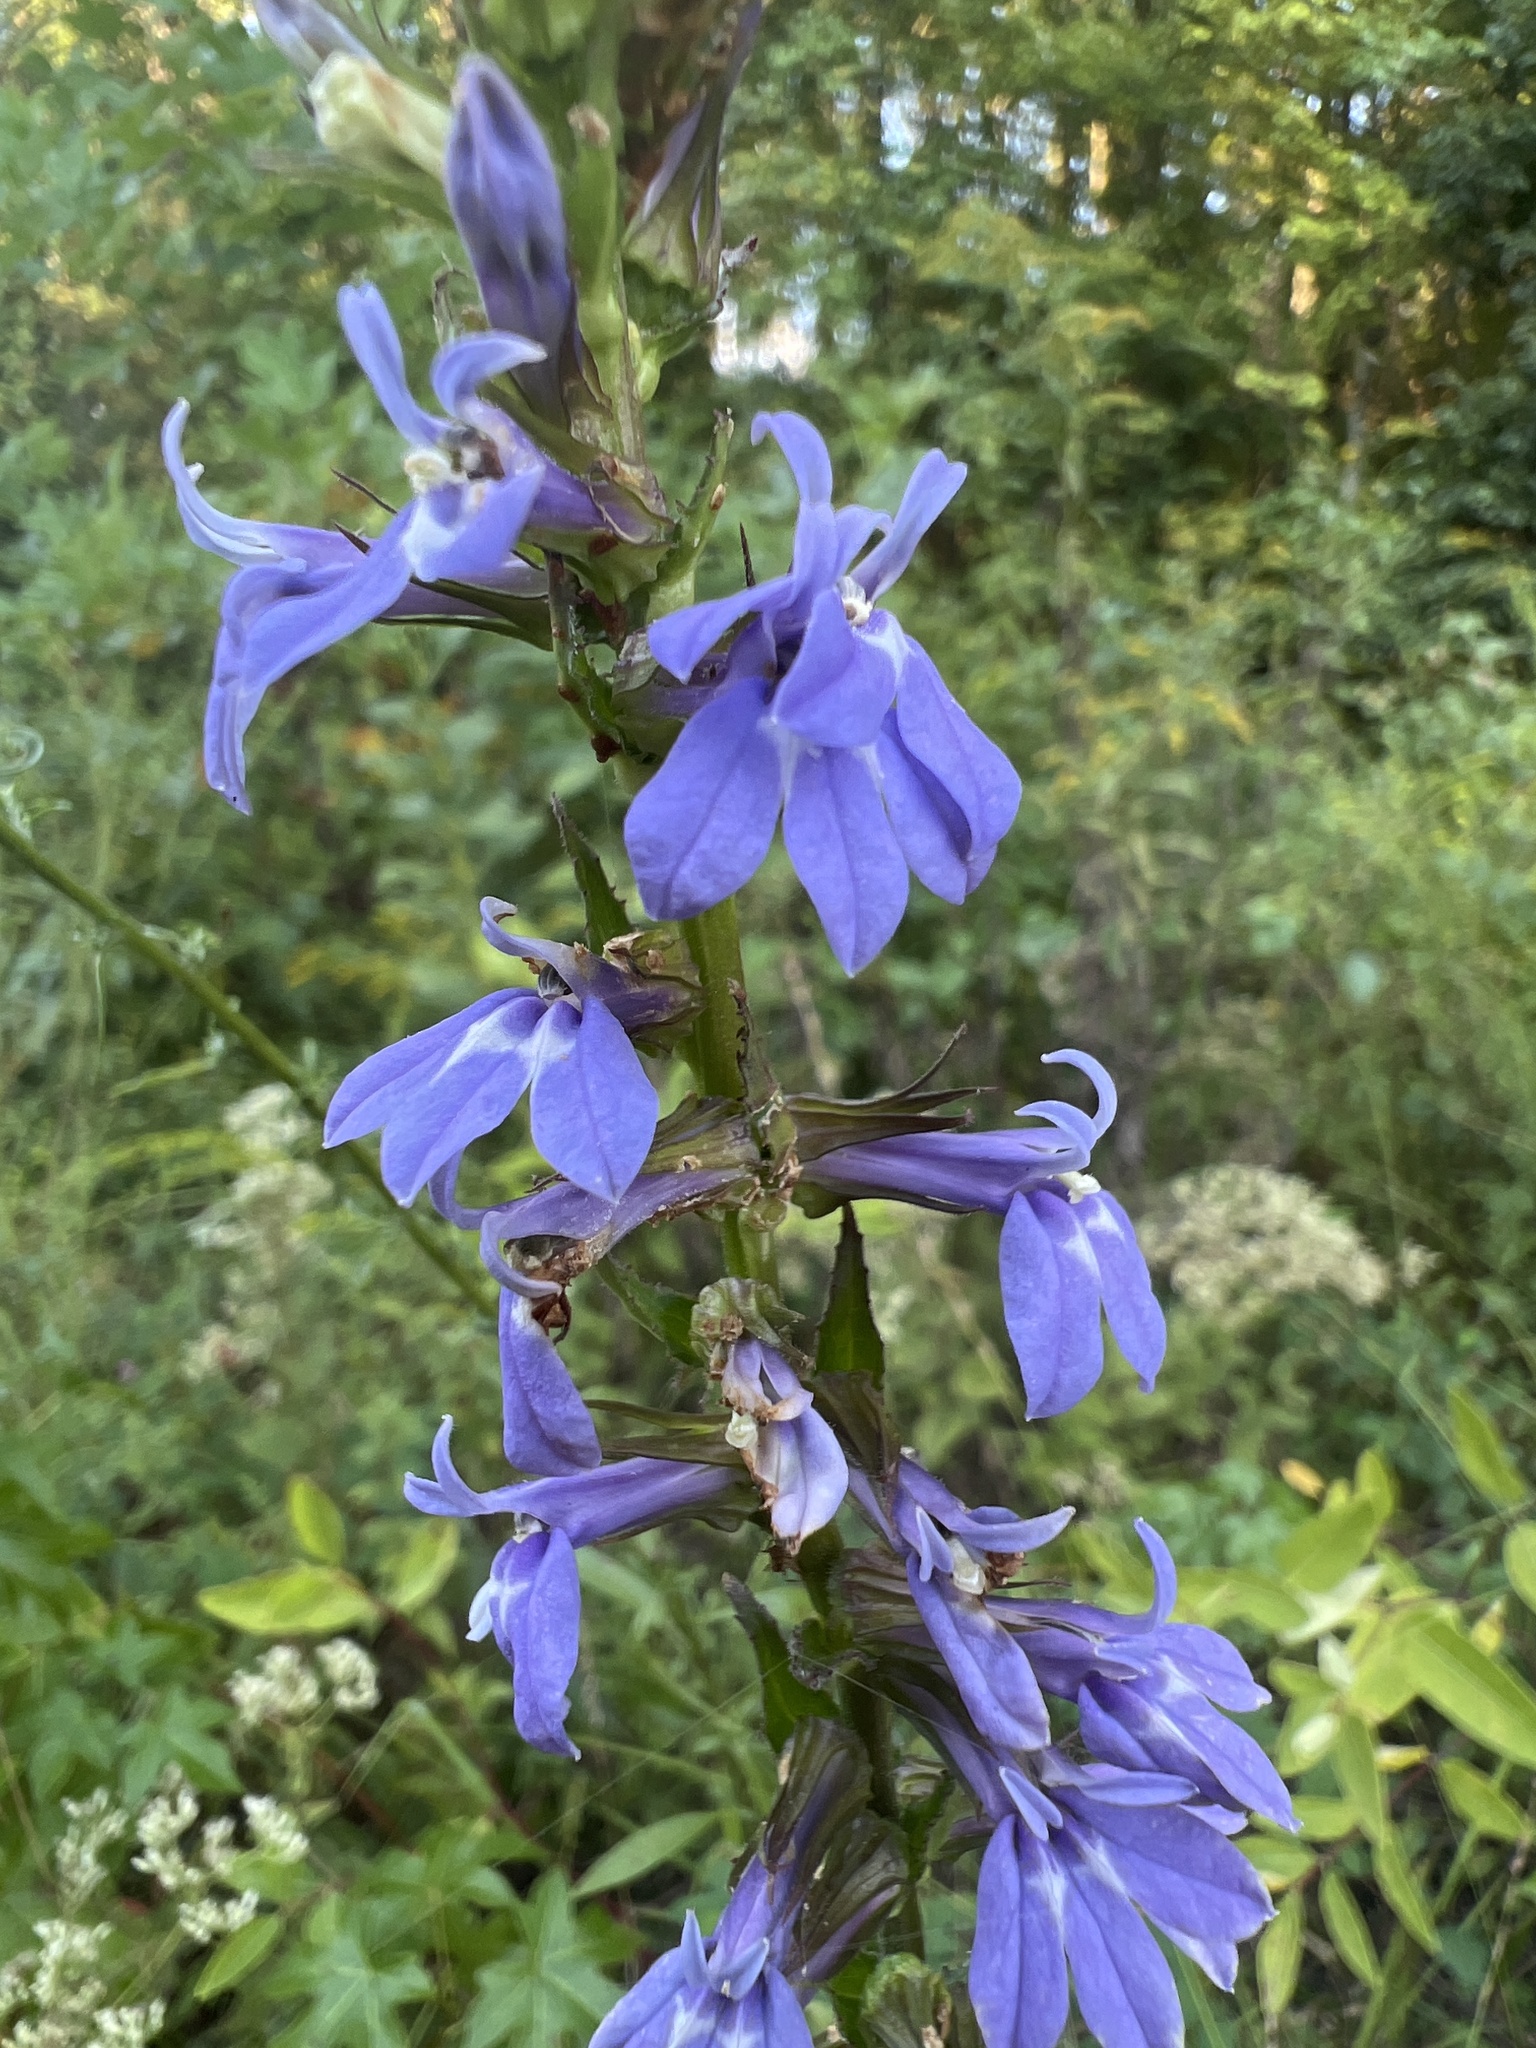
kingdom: Plantae
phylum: Tracheophyta
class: Magnoliopsida
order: Asterales
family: Campanulaceae
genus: Lobelia
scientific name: Lobelia puberula
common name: Purple dewdrop
